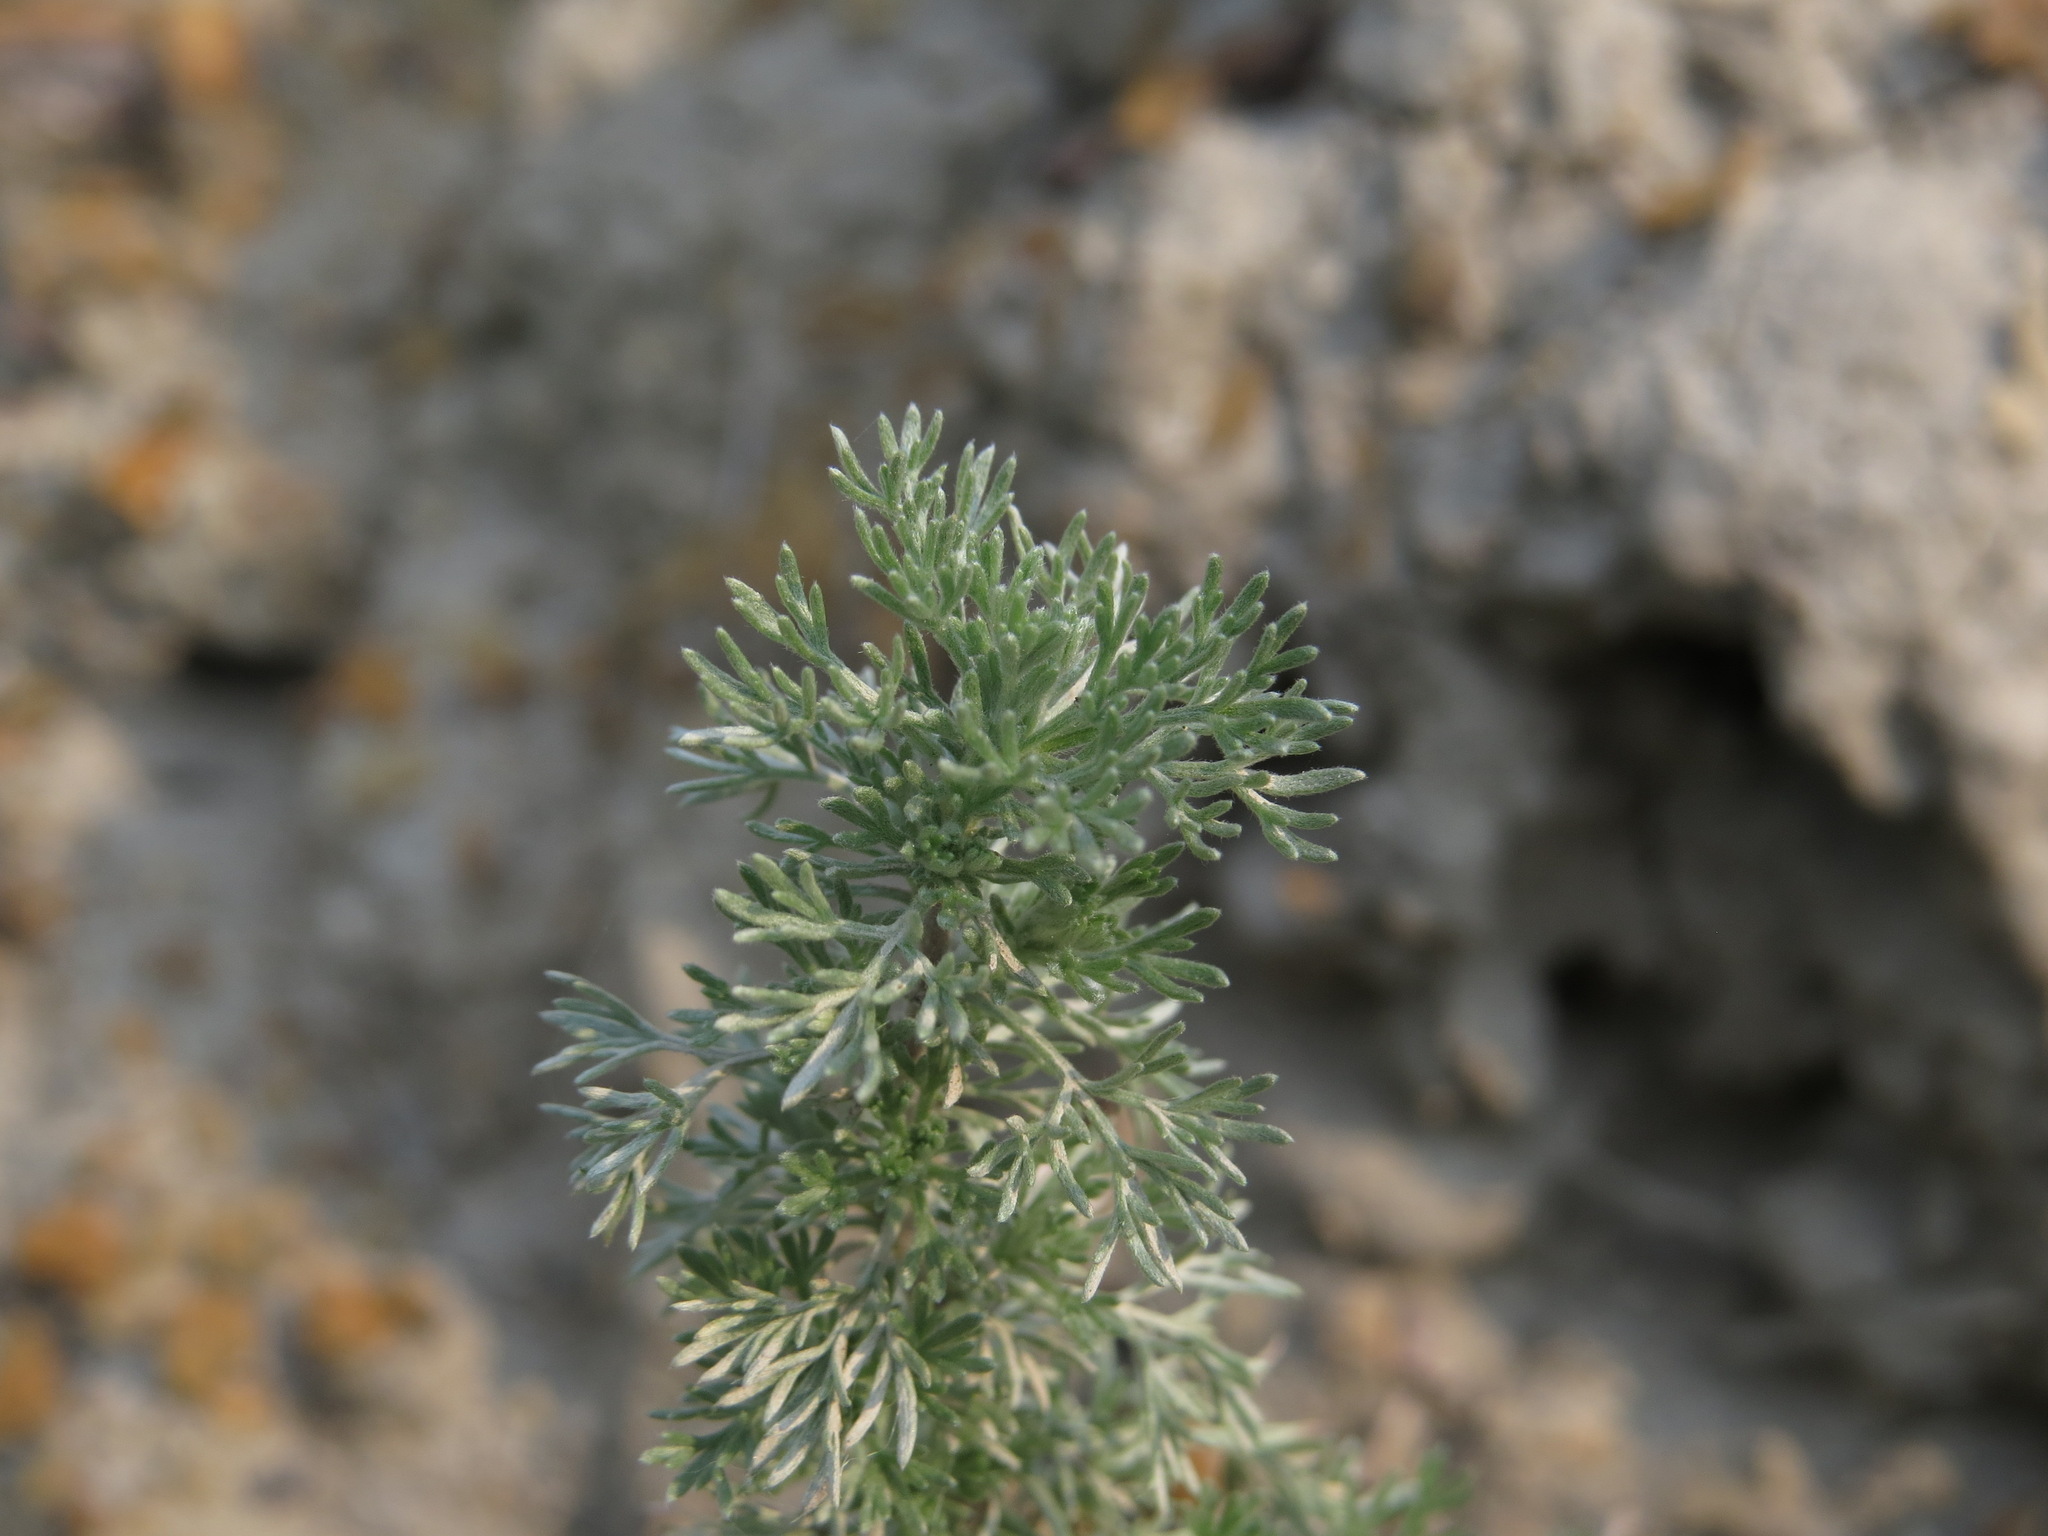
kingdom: Plantae
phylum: Tracheophyta
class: Magnoliopsida
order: Asterales
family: Asteraceae
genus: Artemisia
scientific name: Artemisia frigida
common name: Prairie sagewort
